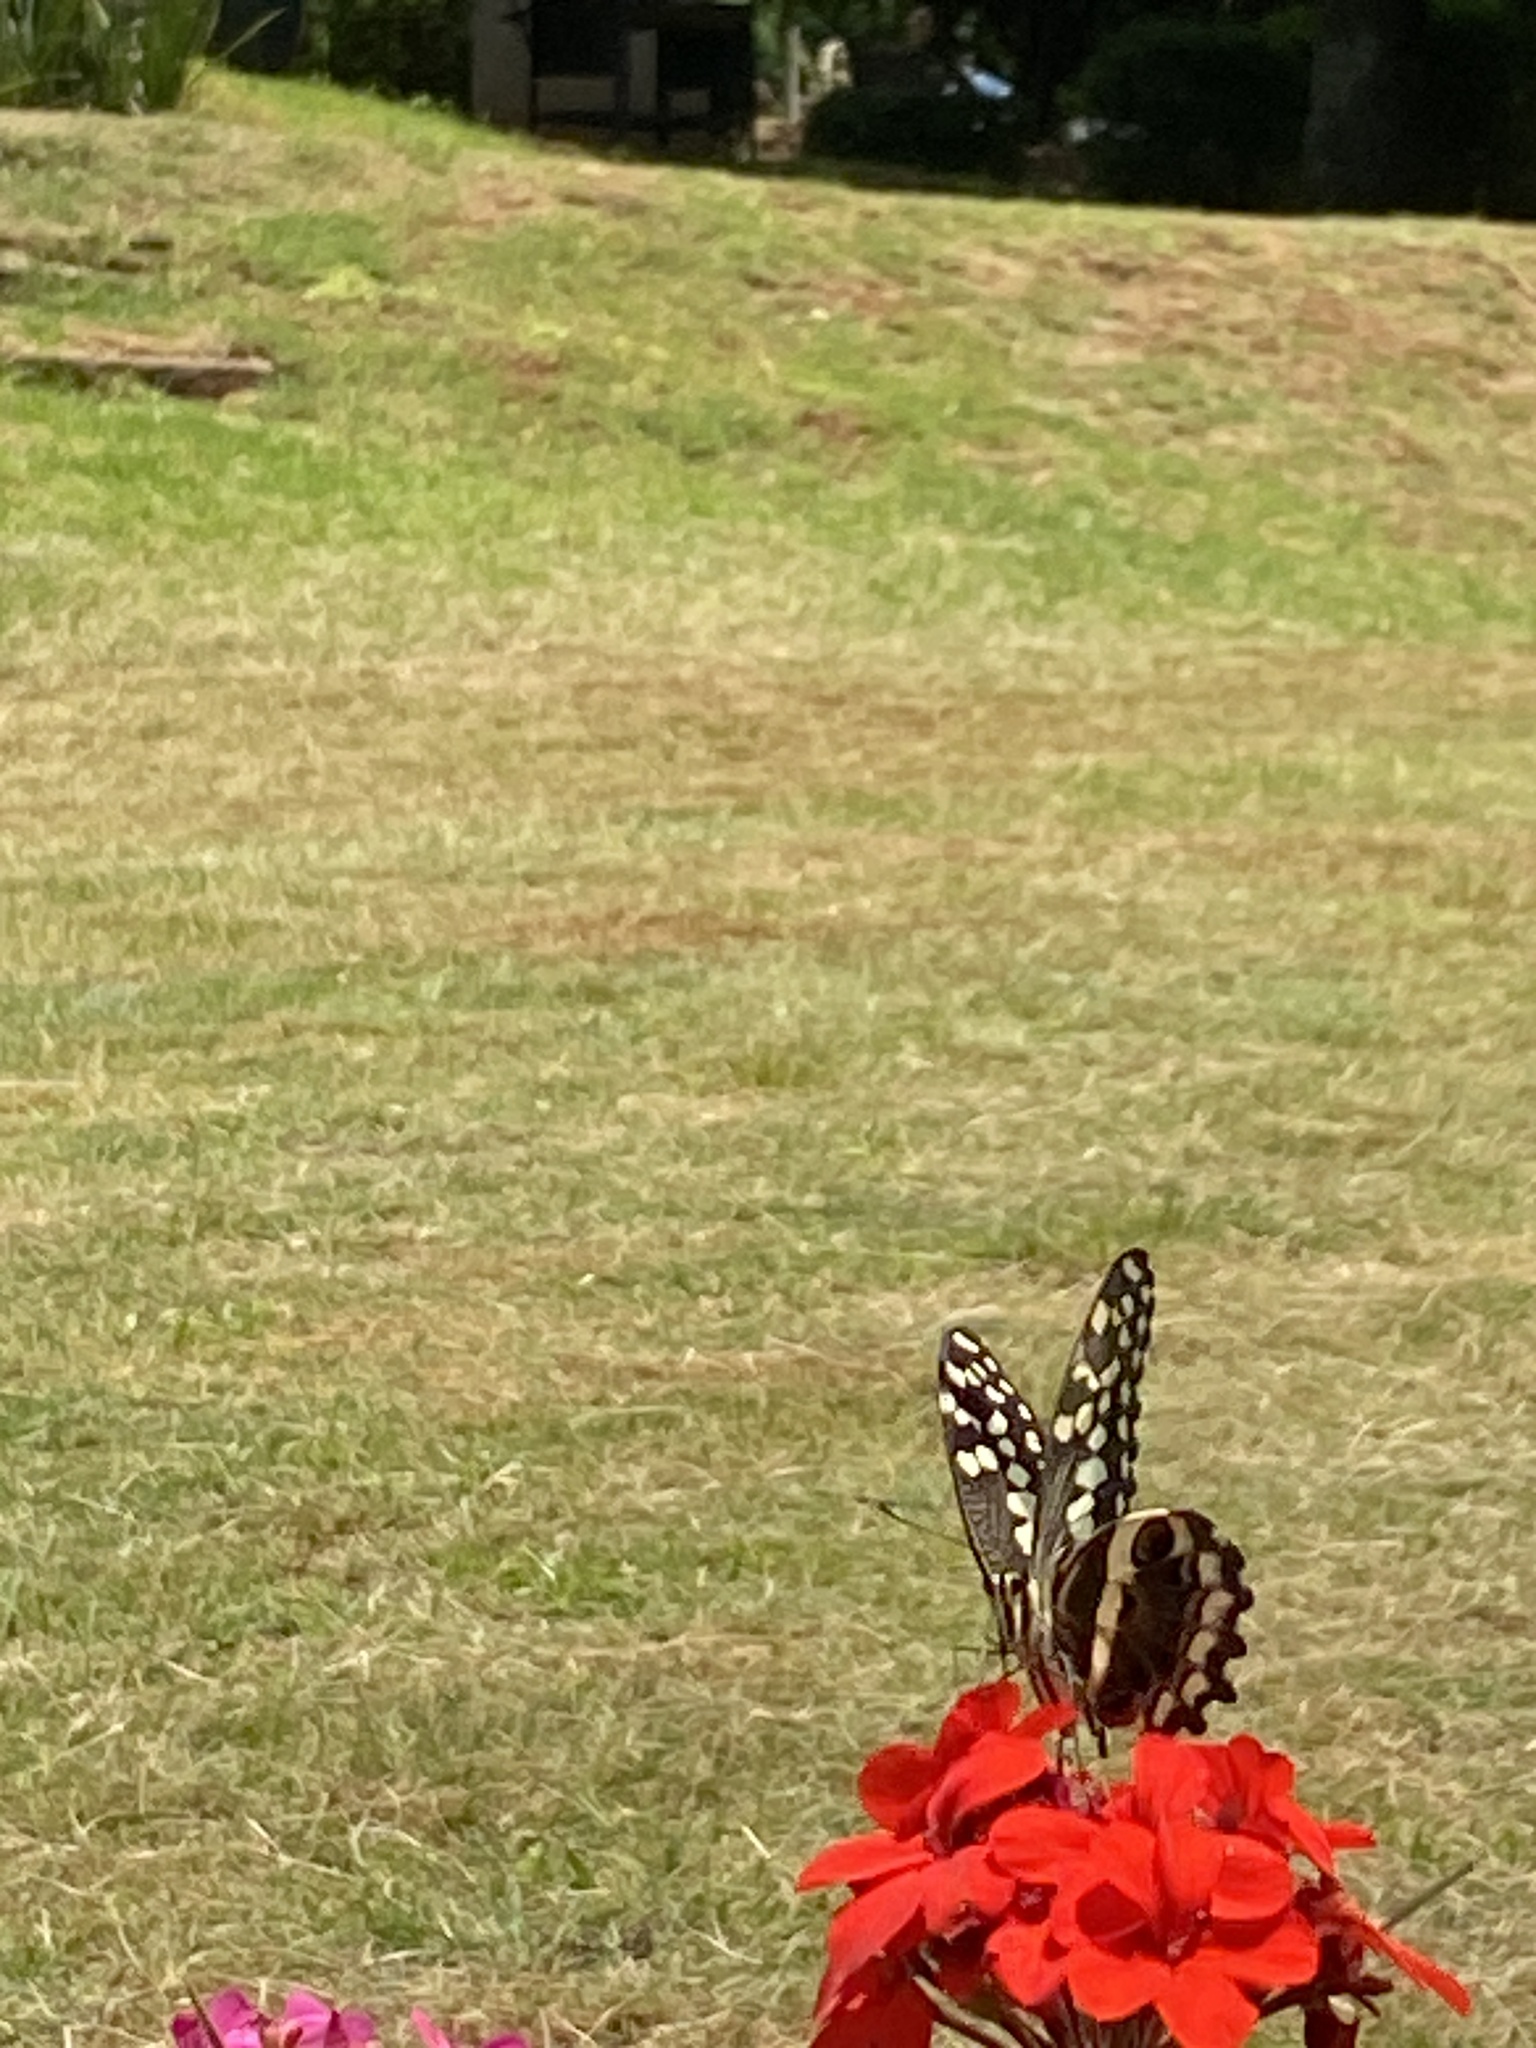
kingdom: Animalia
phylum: Arthropoda
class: Insecta
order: Lepidoptera
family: Papilionidae
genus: Papilio
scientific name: Papilio demodocus
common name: Christmas butterfly
